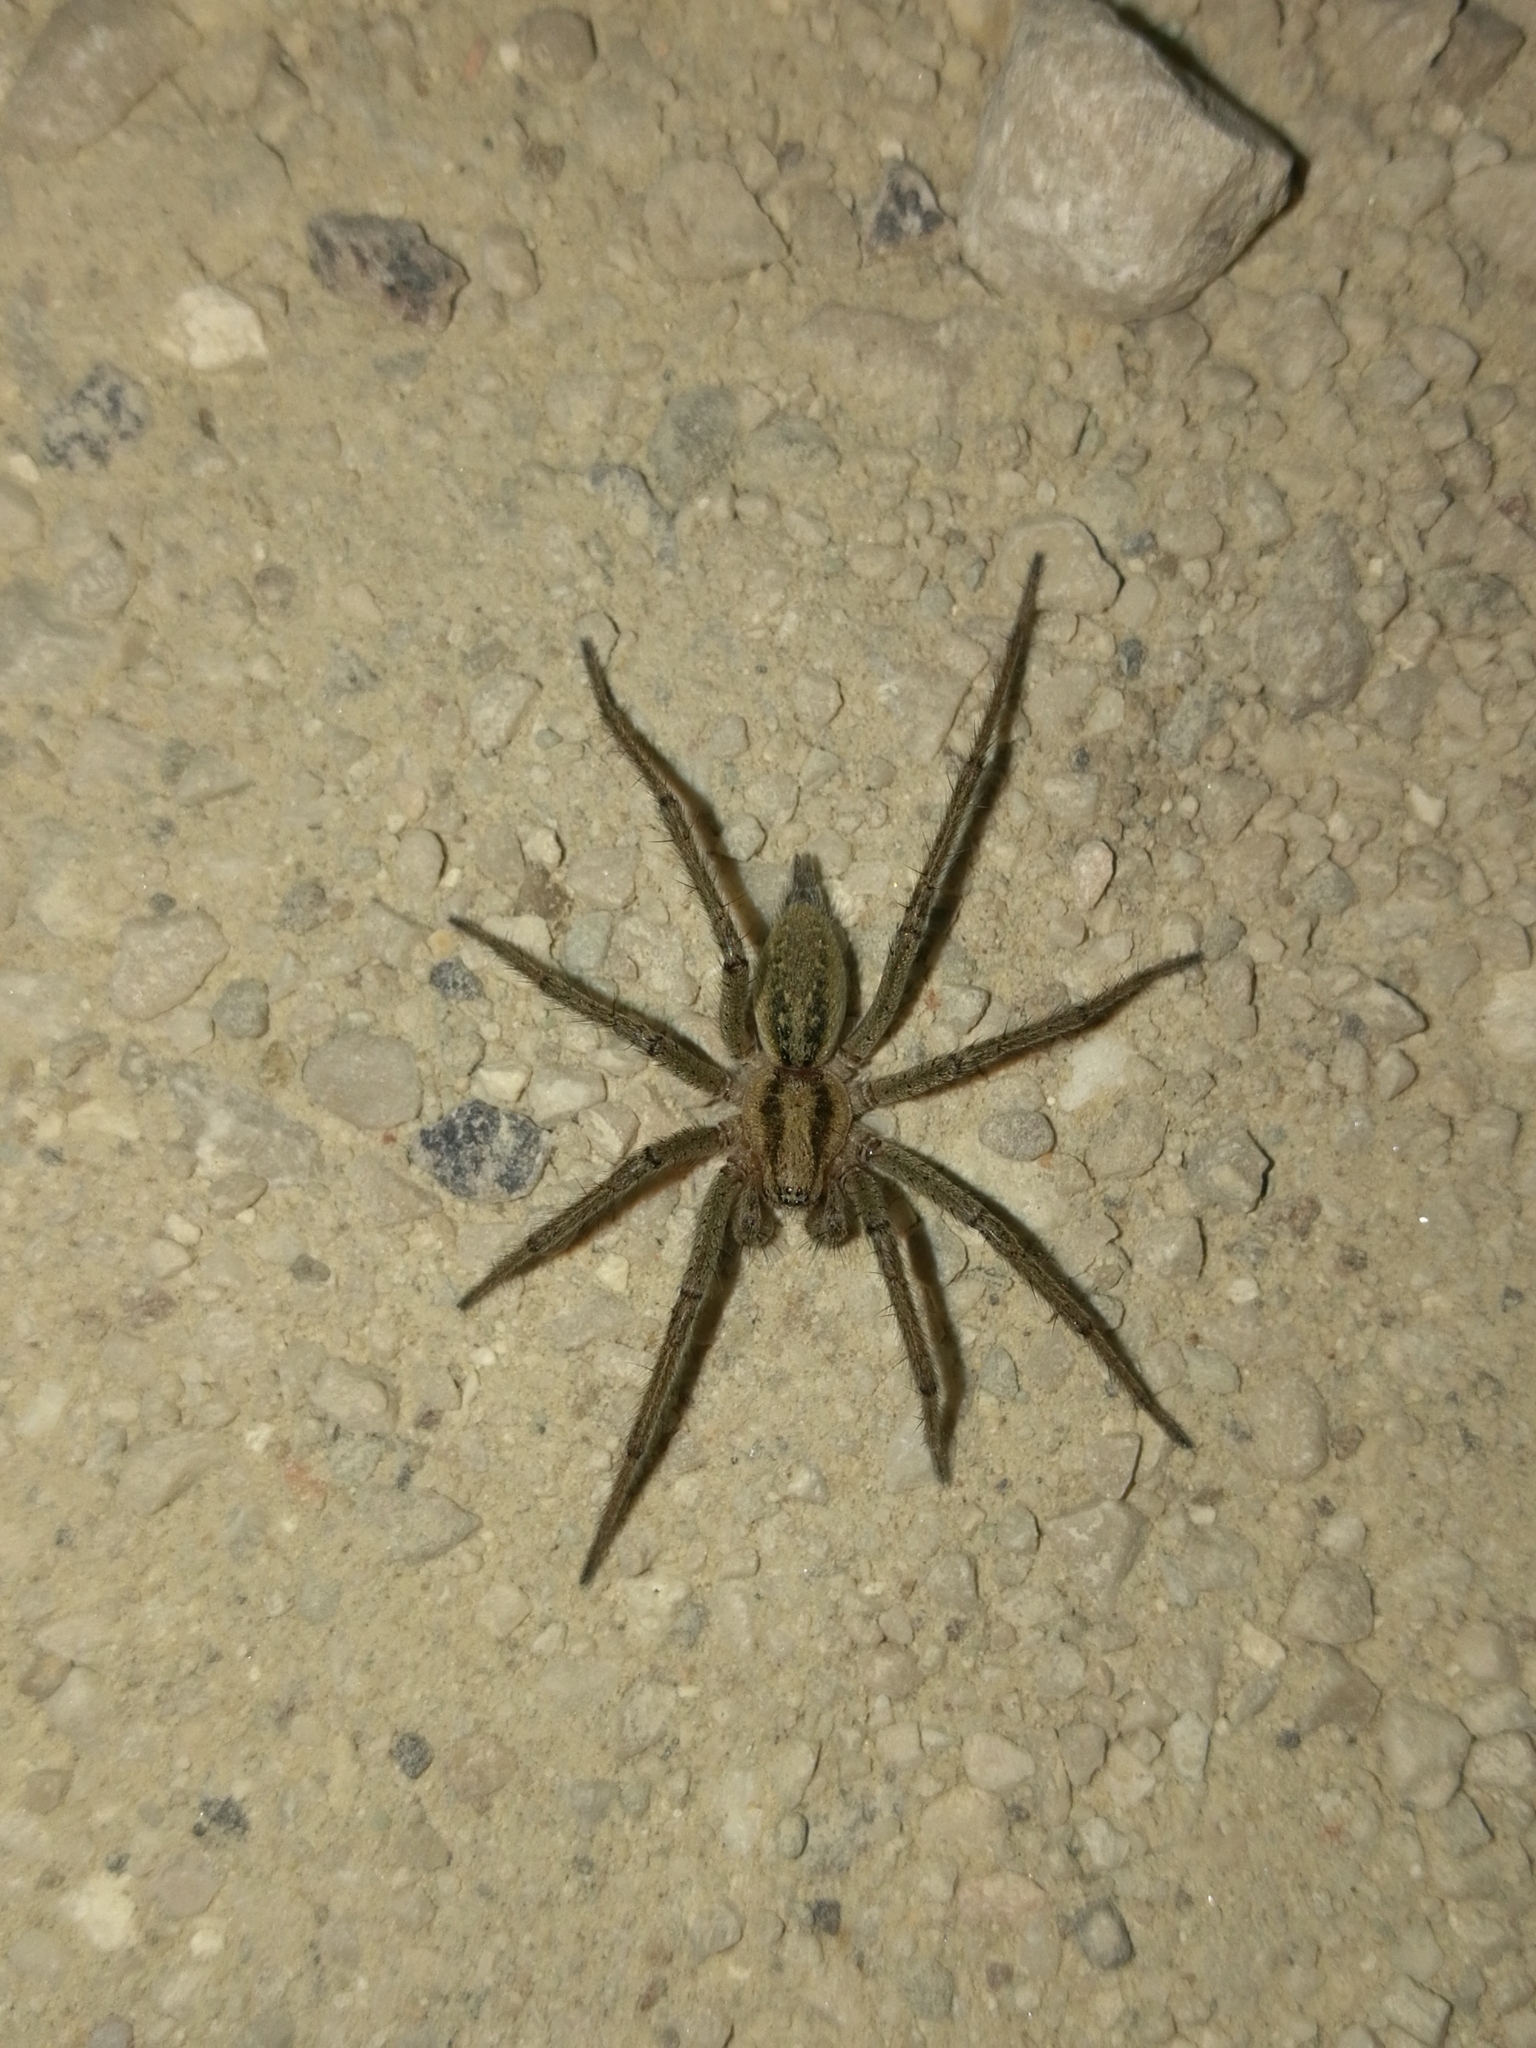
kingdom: Animalia
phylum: Arthropoda
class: Arachnida
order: Araneae
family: Agelenidae
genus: Agelena
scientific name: Agelena labyrinthica
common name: Labyrinth spider
